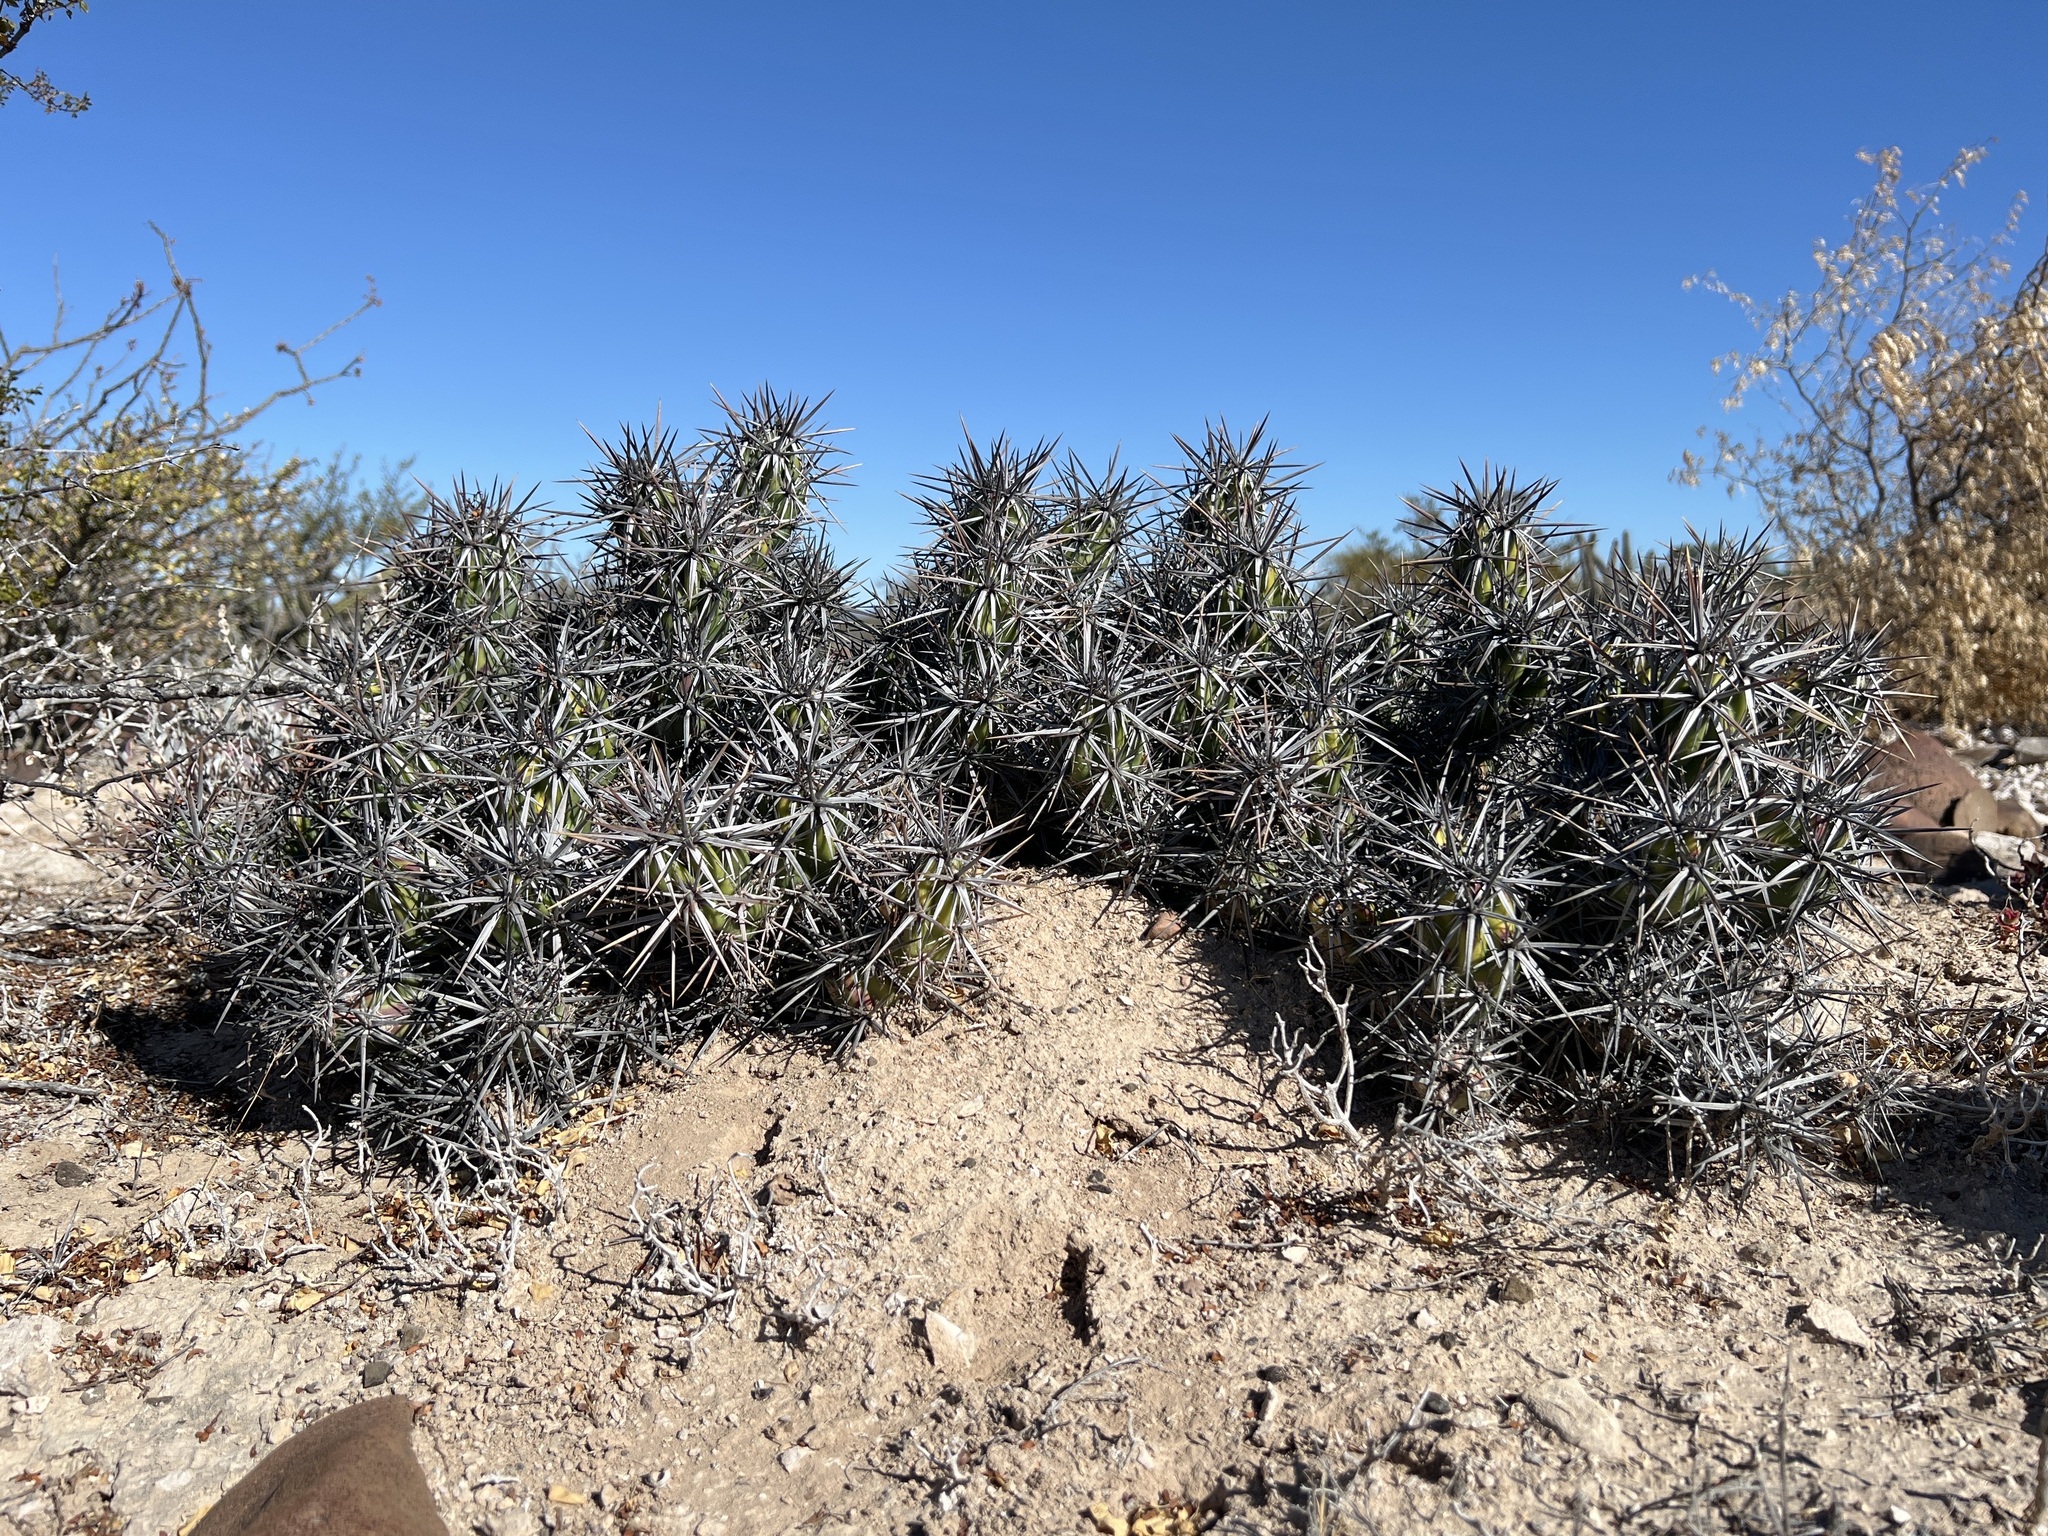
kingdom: Plantae
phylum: Tracheophyta
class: Magnoliopsida
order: Caryophyllales
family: Cactaceae
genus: Grusonia
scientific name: Grusonia invicta
